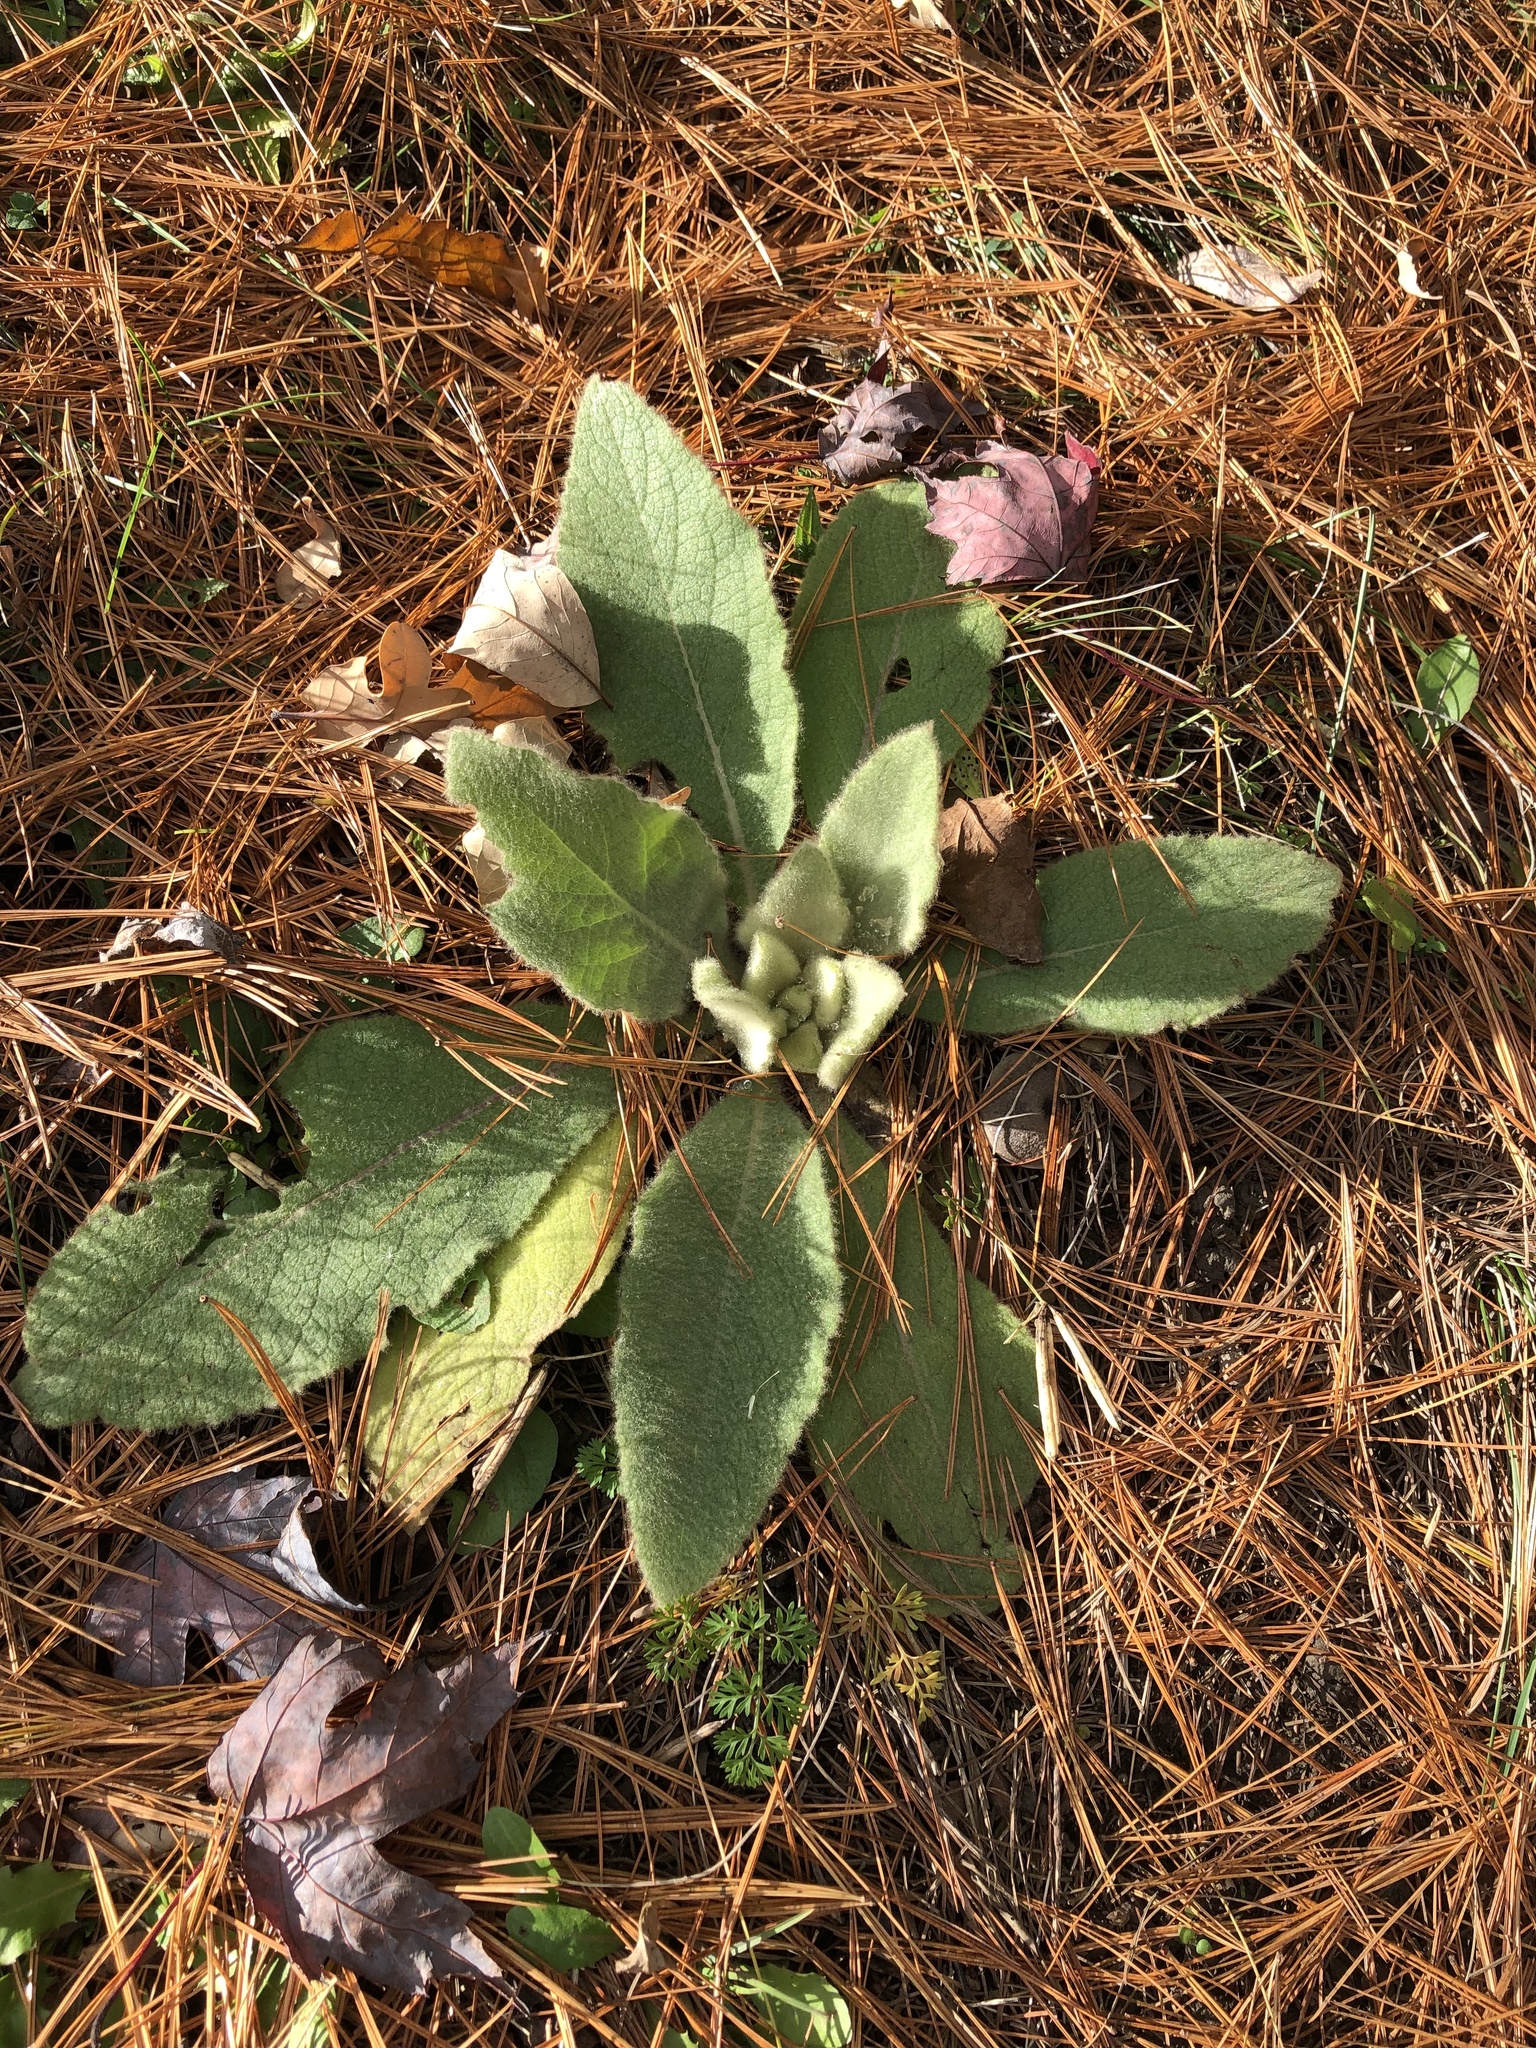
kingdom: Plantae
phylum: Tracheophyta
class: Magnoliopsida
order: Lamiales
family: Scrophulariaceae
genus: Verbascum
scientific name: Verbascum thapsus
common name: Common mullein
